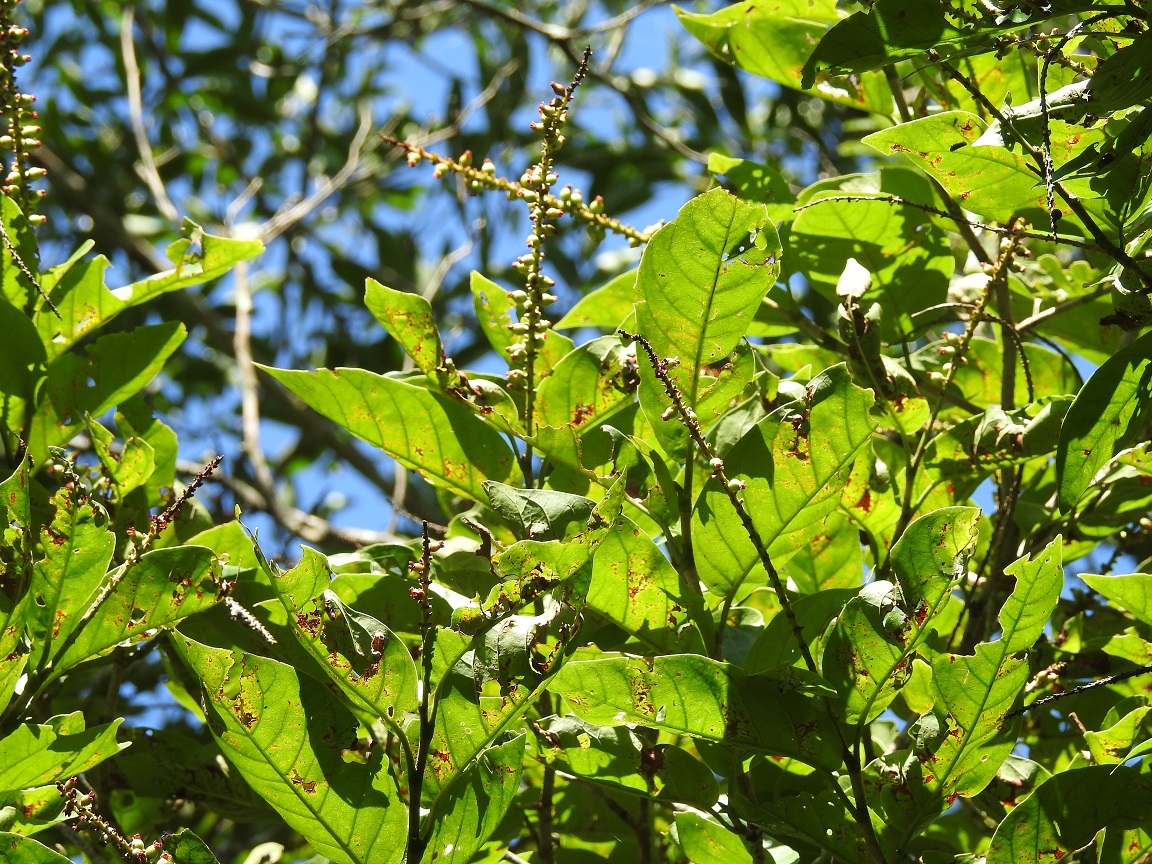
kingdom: Plantae
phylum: Tracheophyta
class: Magnoliopsida
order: Caryophyllales
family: Polygonaceae
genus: Coccoloba
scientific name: Coccoloba hondurensis
